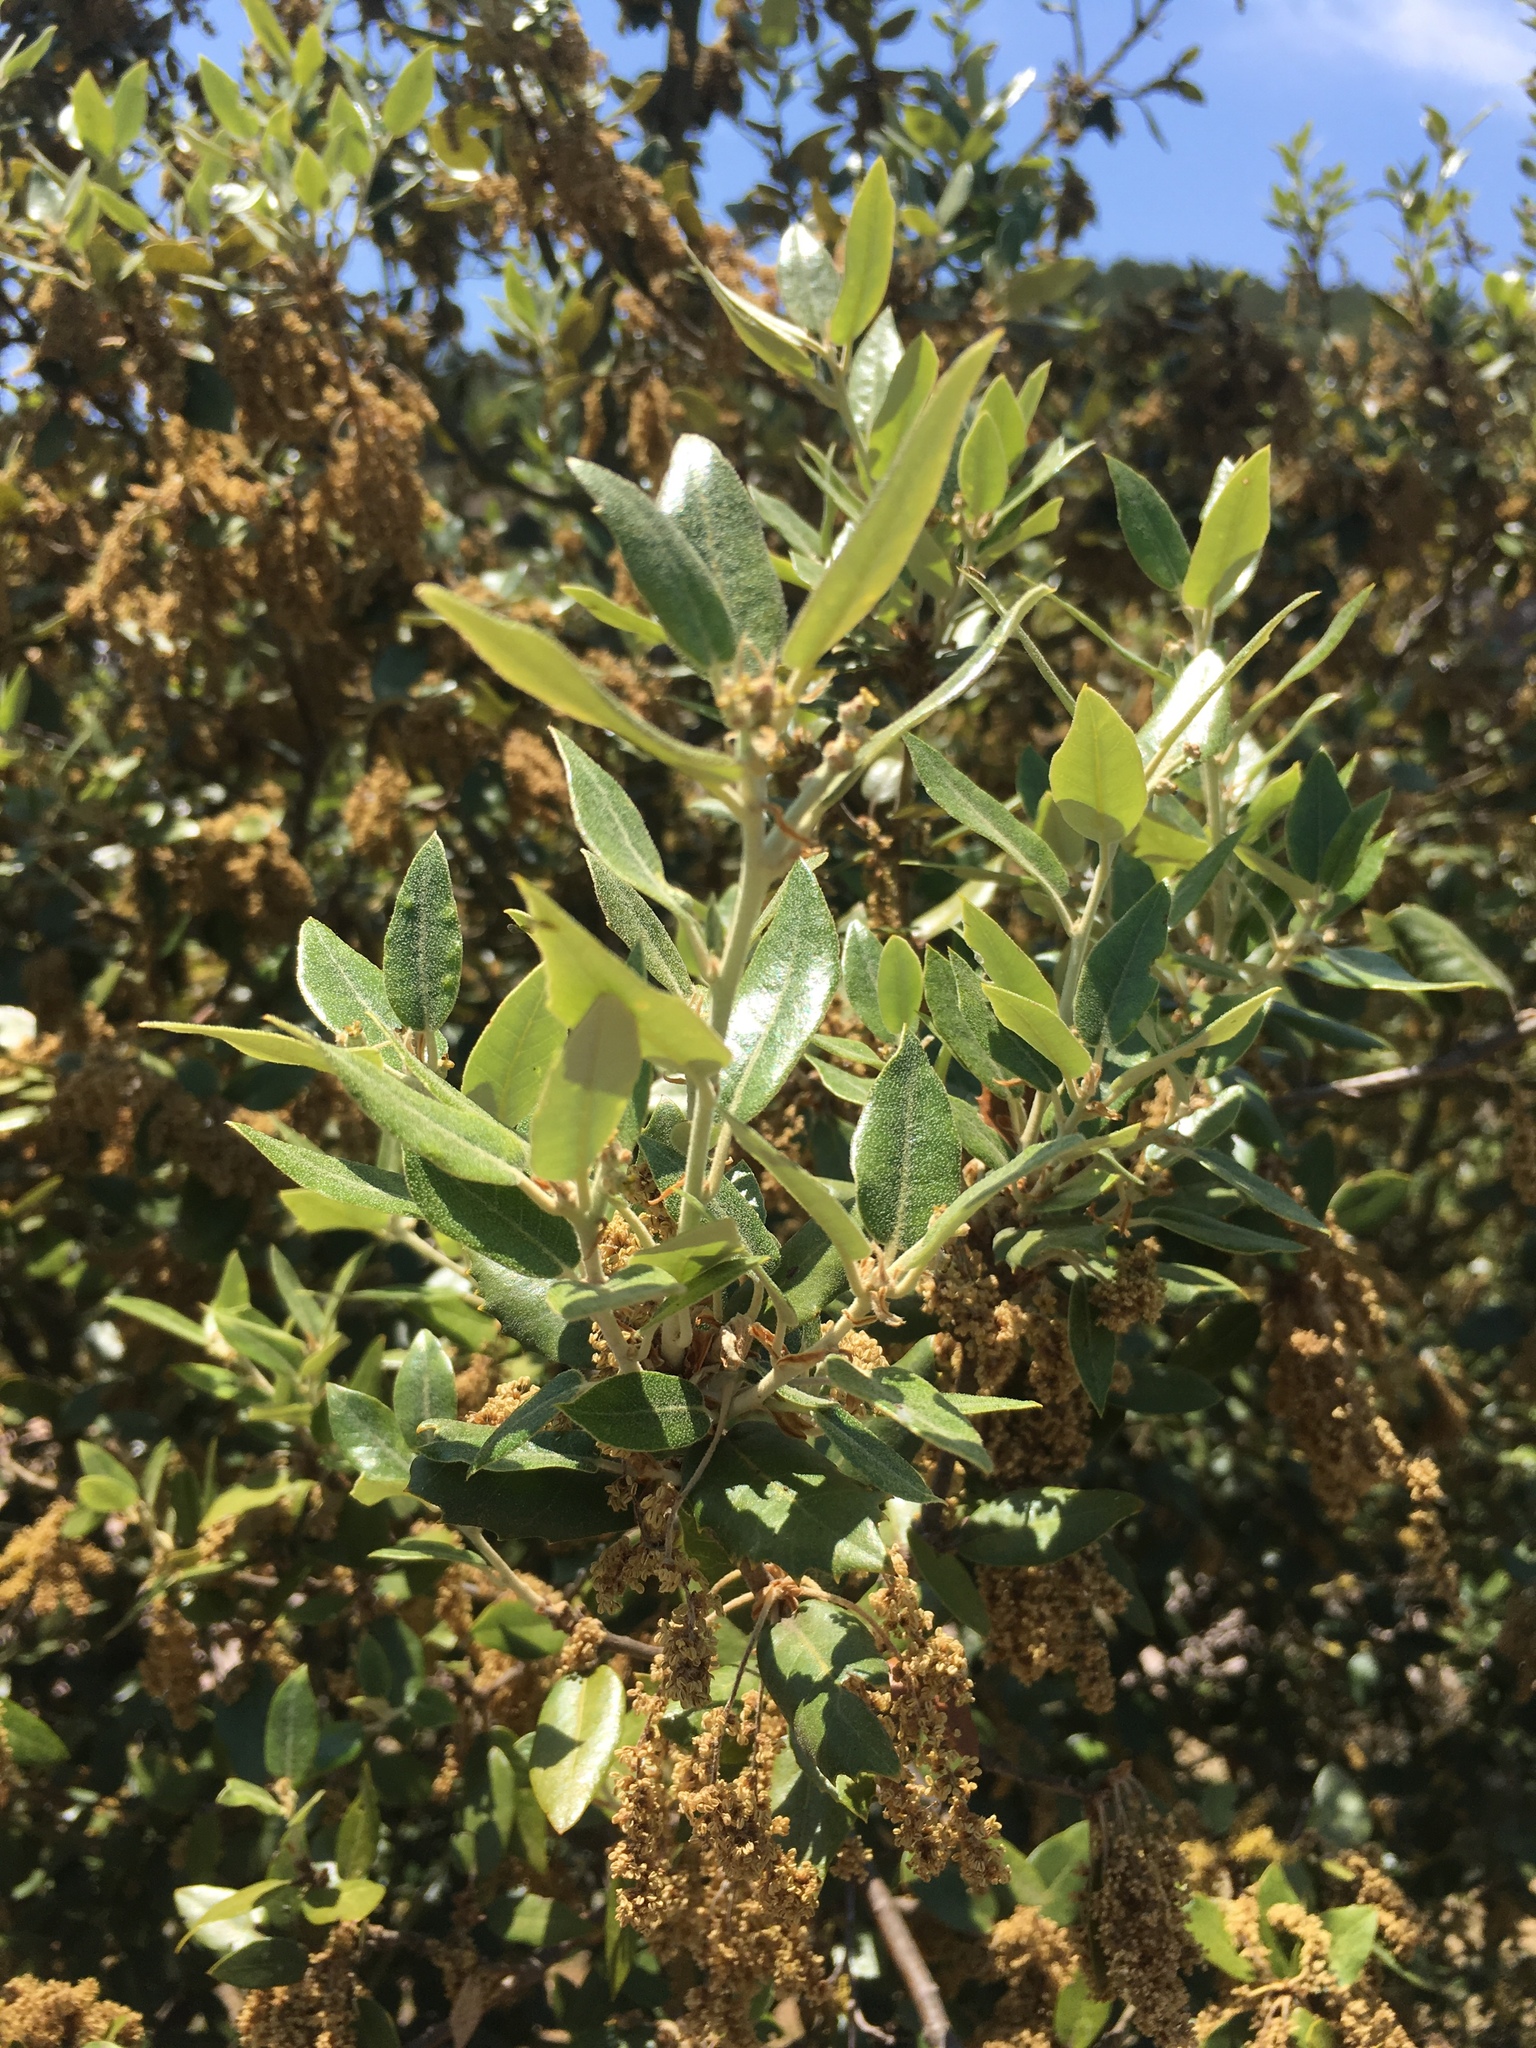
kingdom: Plantae
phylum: Tracheophyta
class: Magnoliopsida
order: Fagales
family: Fagaceae
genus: Quercus
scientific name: Quercus ilex
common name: Evergreen oak
